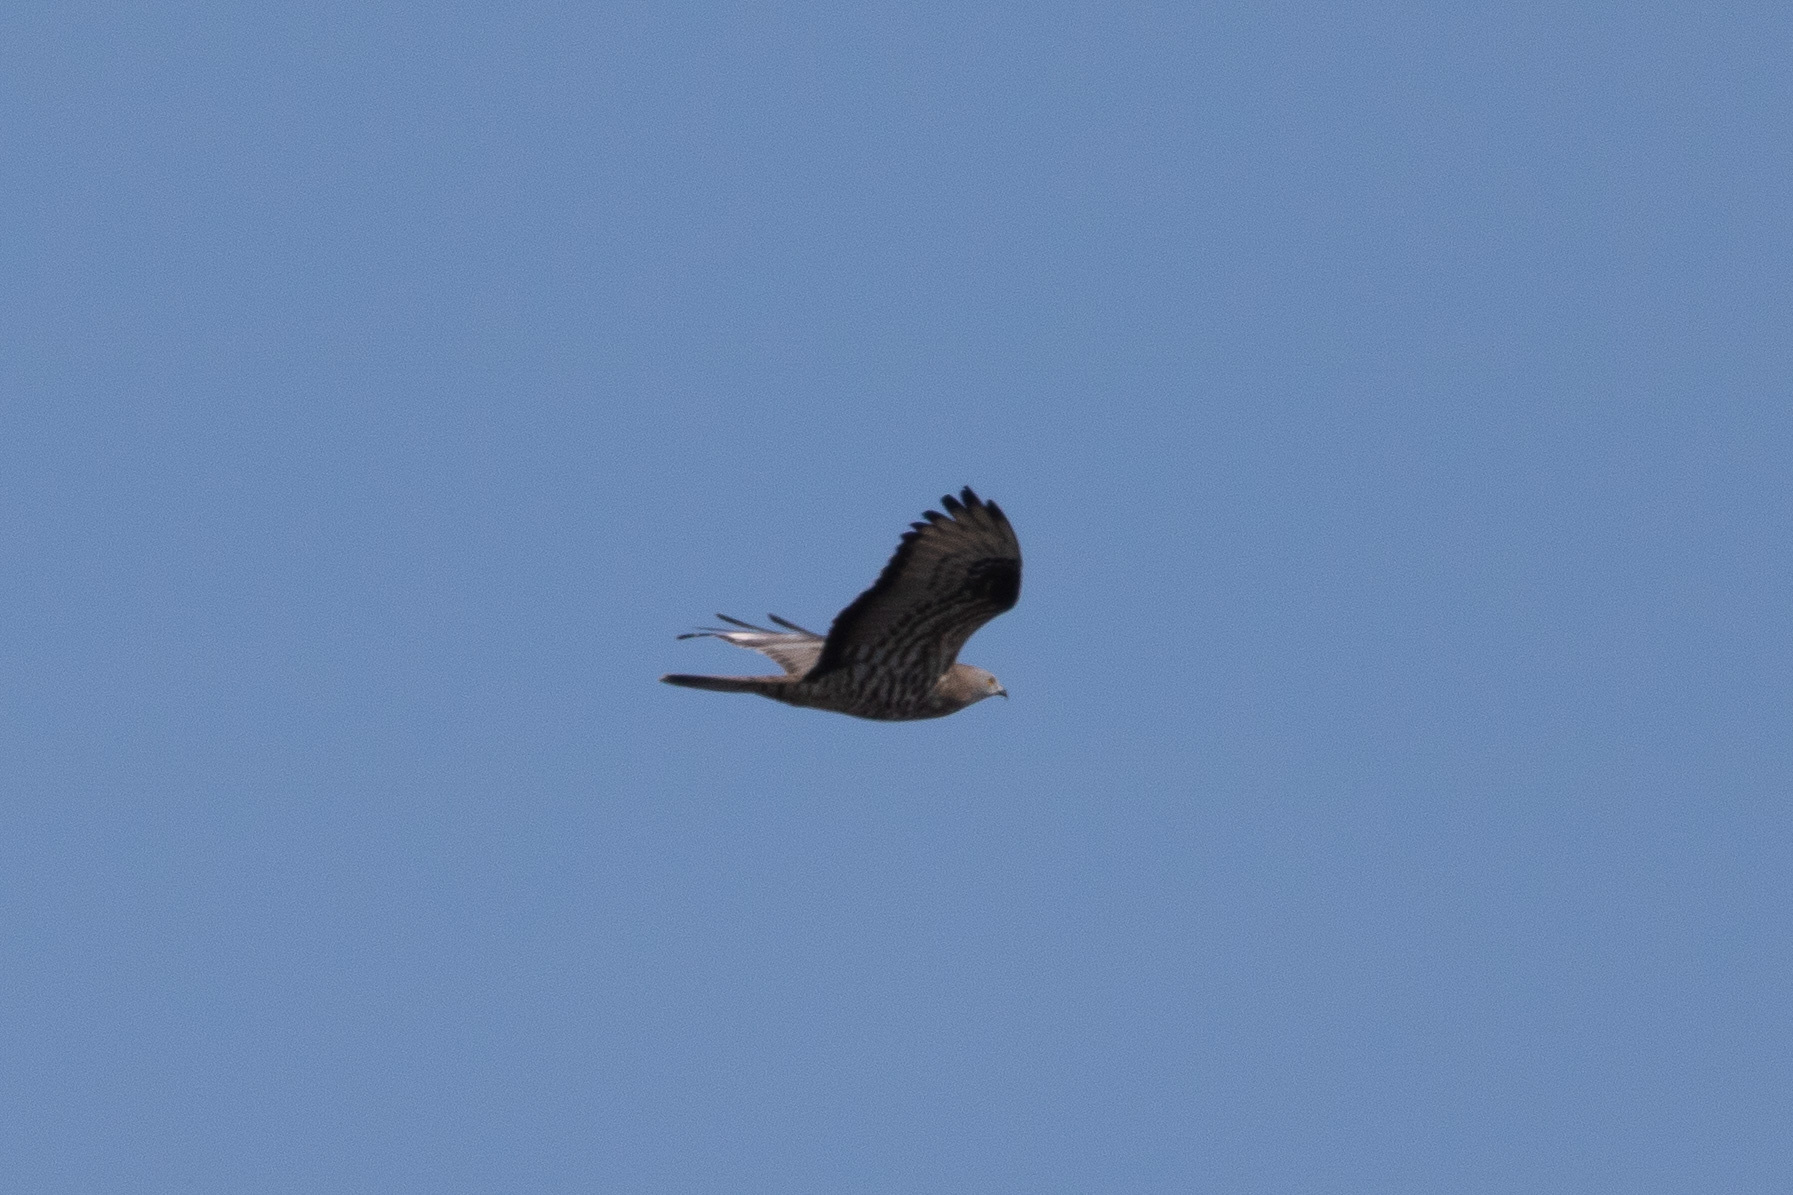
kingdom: Animalia
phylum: Chordata
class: Aves
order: Accipitriformes
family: Accipitridae
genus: Pernis
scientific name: Pernis apivorus
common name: European honey buzzard
